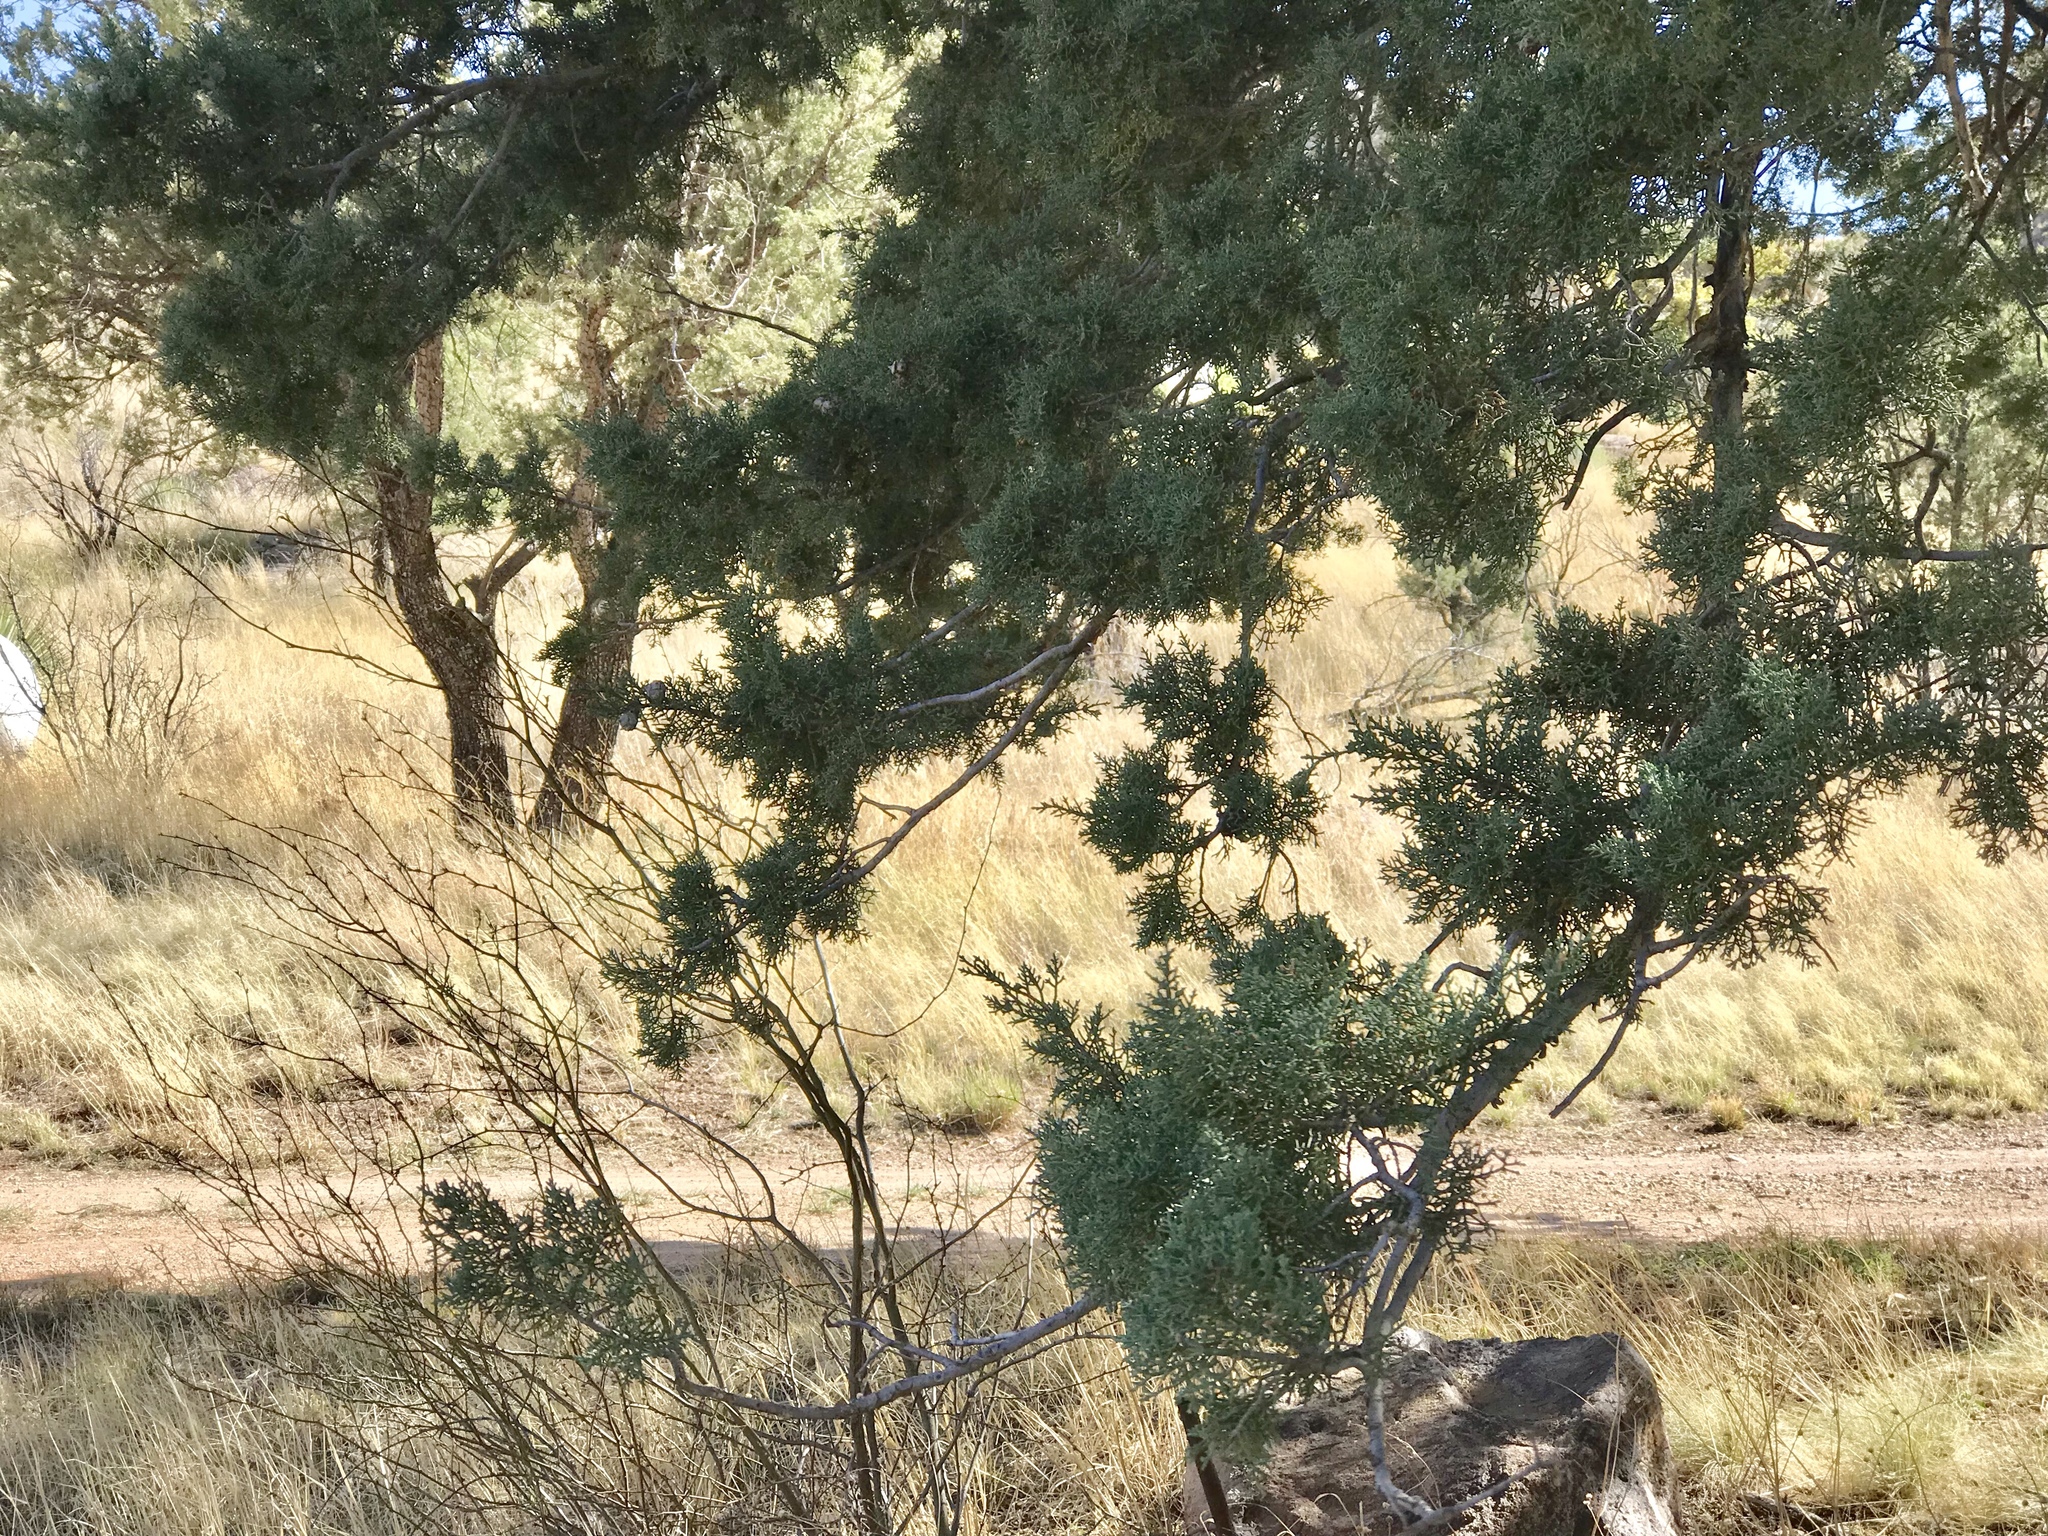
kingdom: Plantae
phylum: Tracheophyta
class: Pinopsida
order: Pinales
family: Cupressaceae
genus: Juniperus
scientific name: Juniperus deppeana
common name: Alligator juniper
